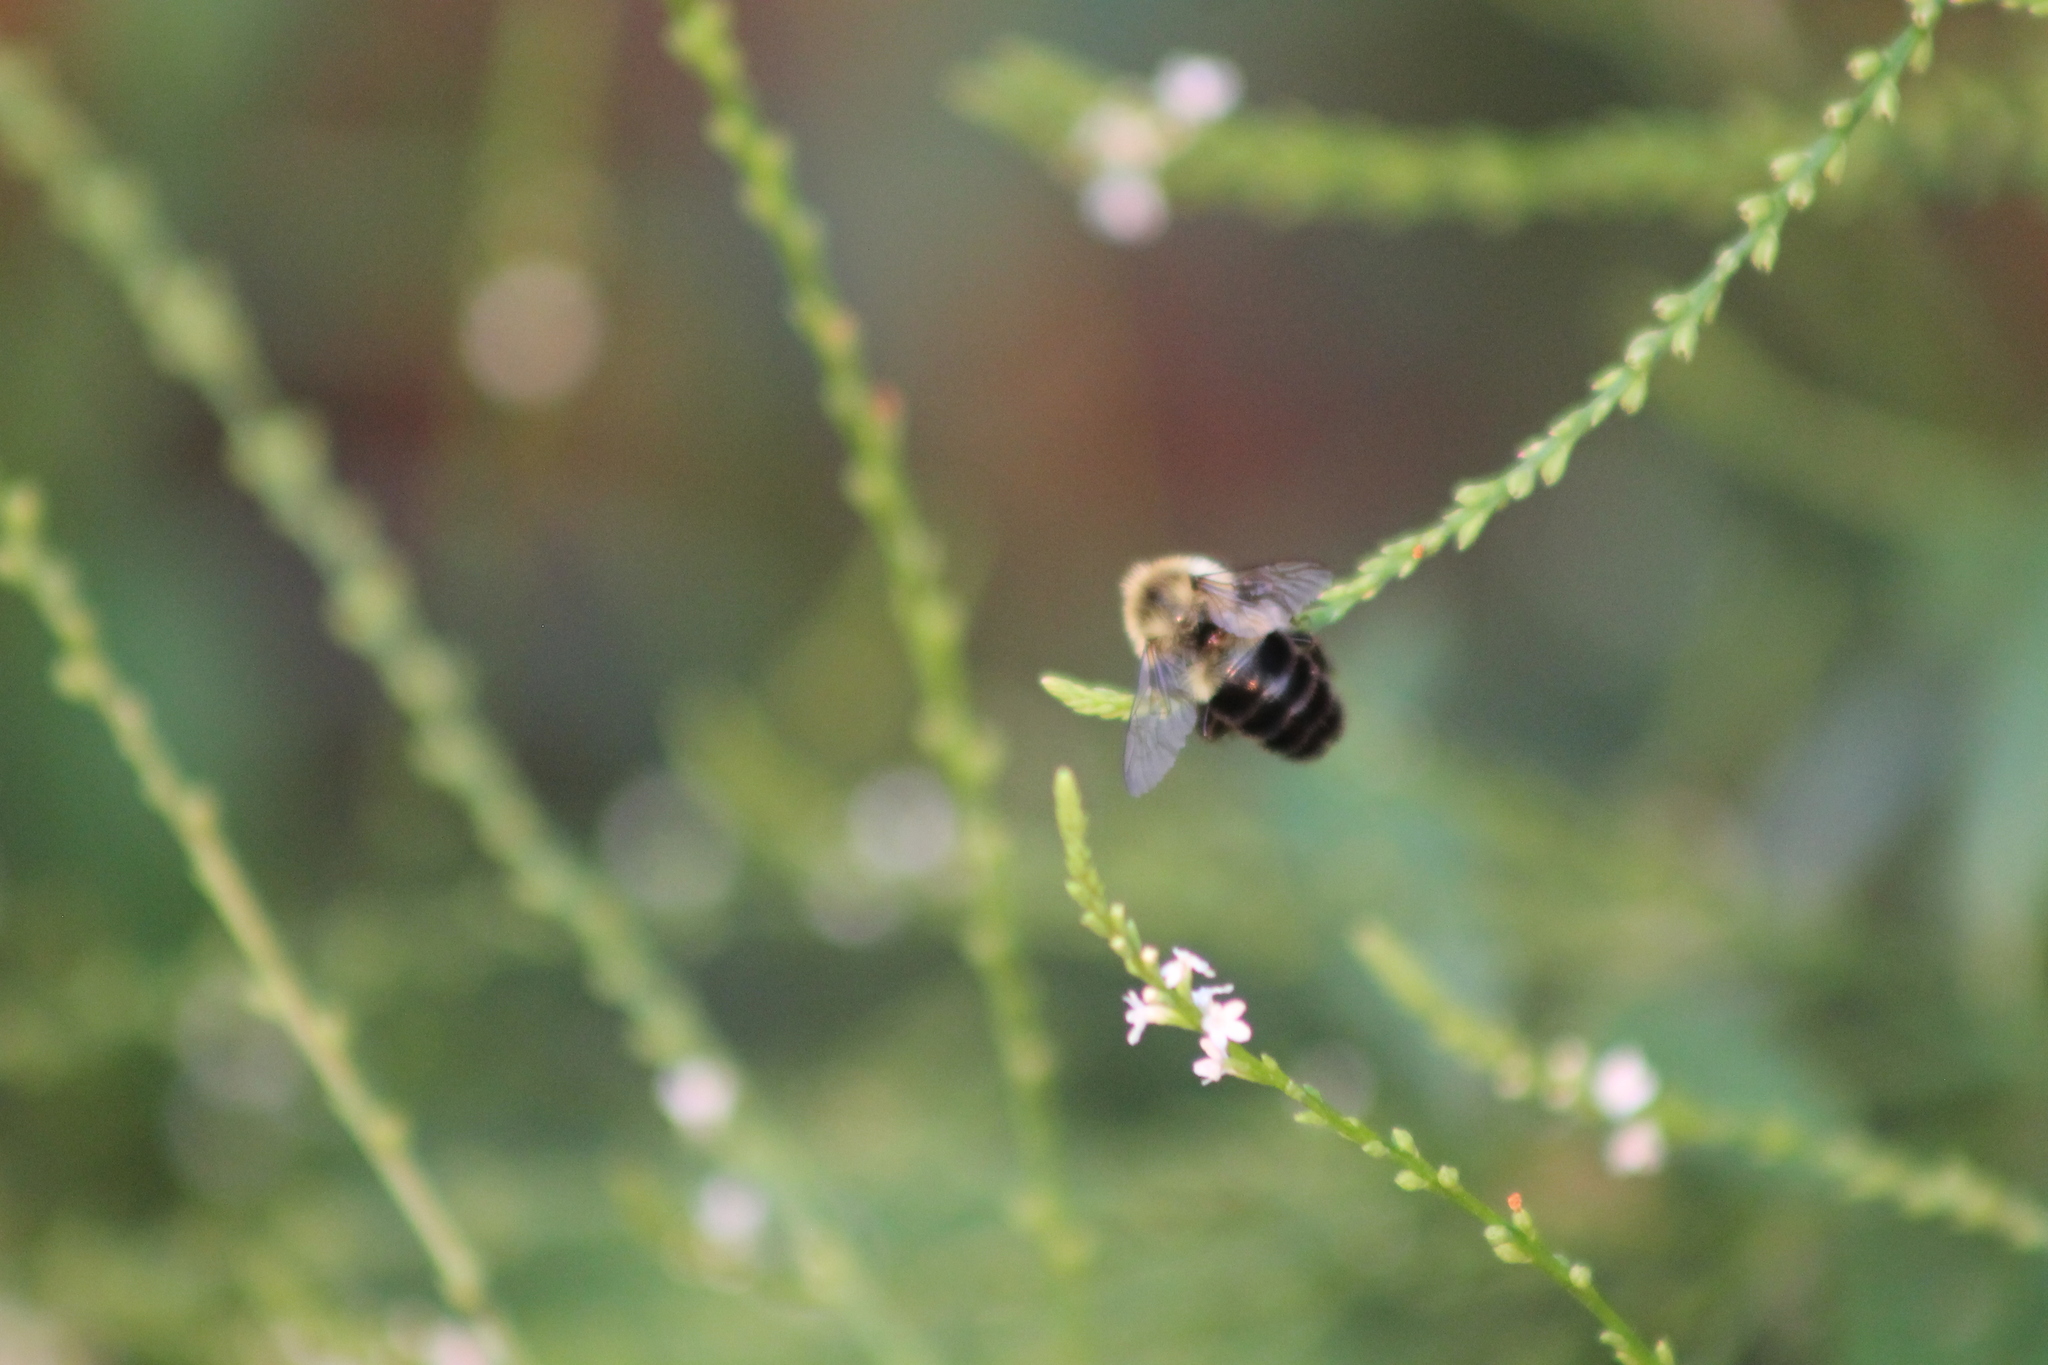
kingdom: Animalia
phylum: Arthropoda
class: Insecta
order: Hymenoptera
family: Apidae
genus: Bombus
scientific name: Bombus impatiens
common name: Common eastern bumble bee
